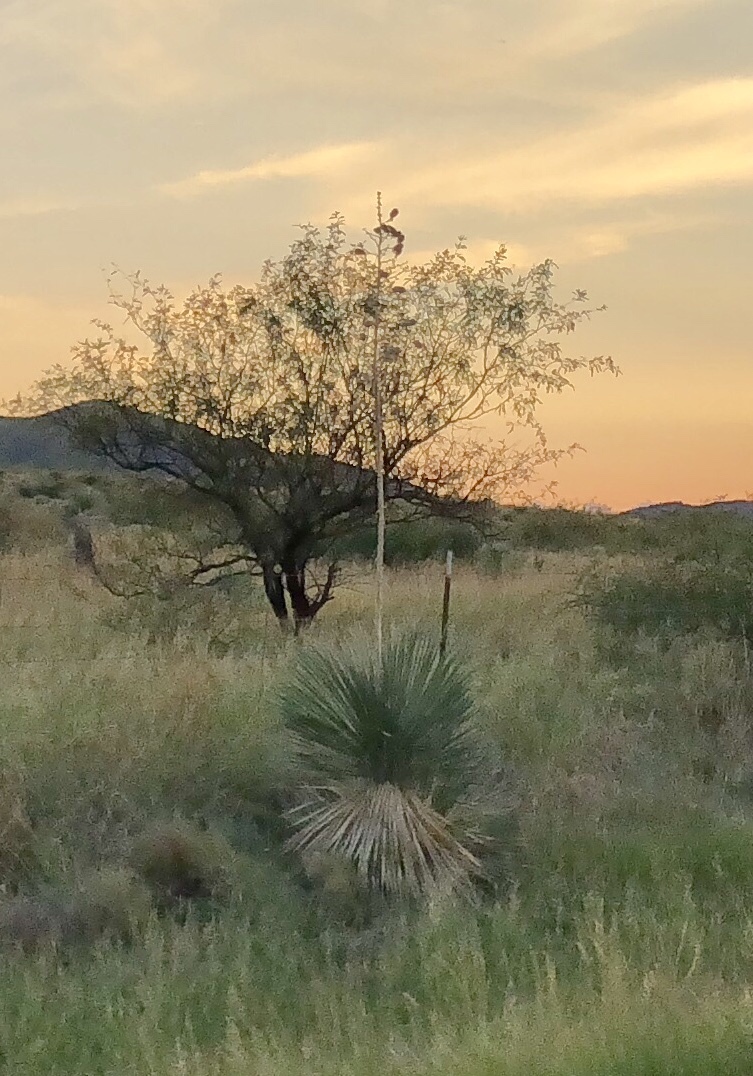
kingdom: Plantae
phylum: Tracheophyta
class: Liliopsida
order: Asparagales
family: Asparagaceae
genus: Yucca
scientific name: Yucca elata
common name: Palmella
